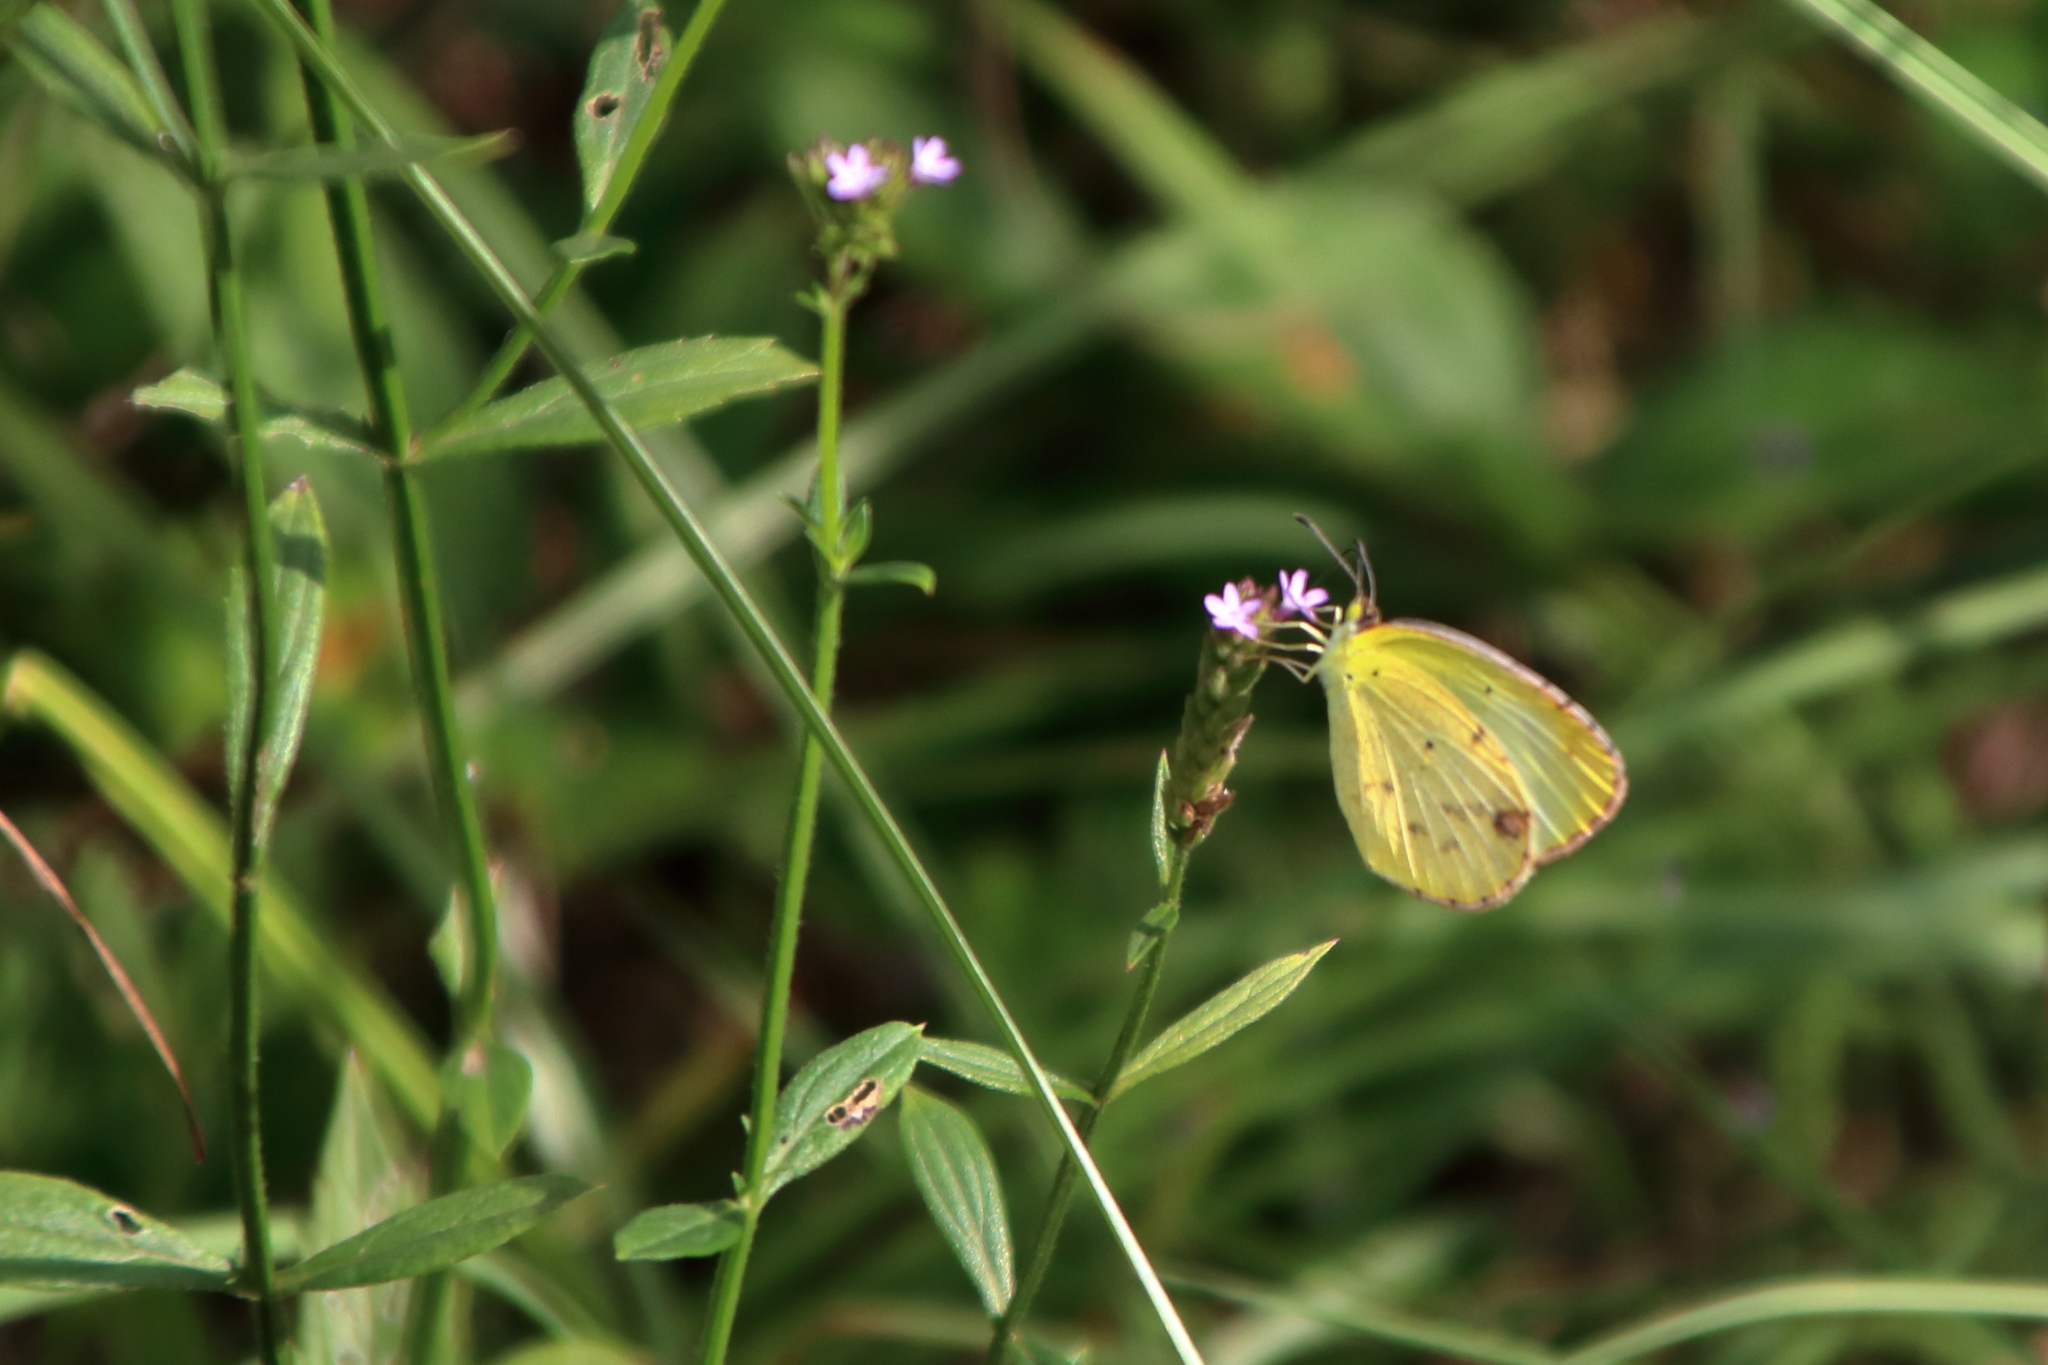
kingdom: Animalia
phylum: Arthropoda
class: Insecta
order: Lepidoptera
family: Pieridae
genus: Pyrisitia
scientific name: Pyrisitia lisa
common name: Little yellow
